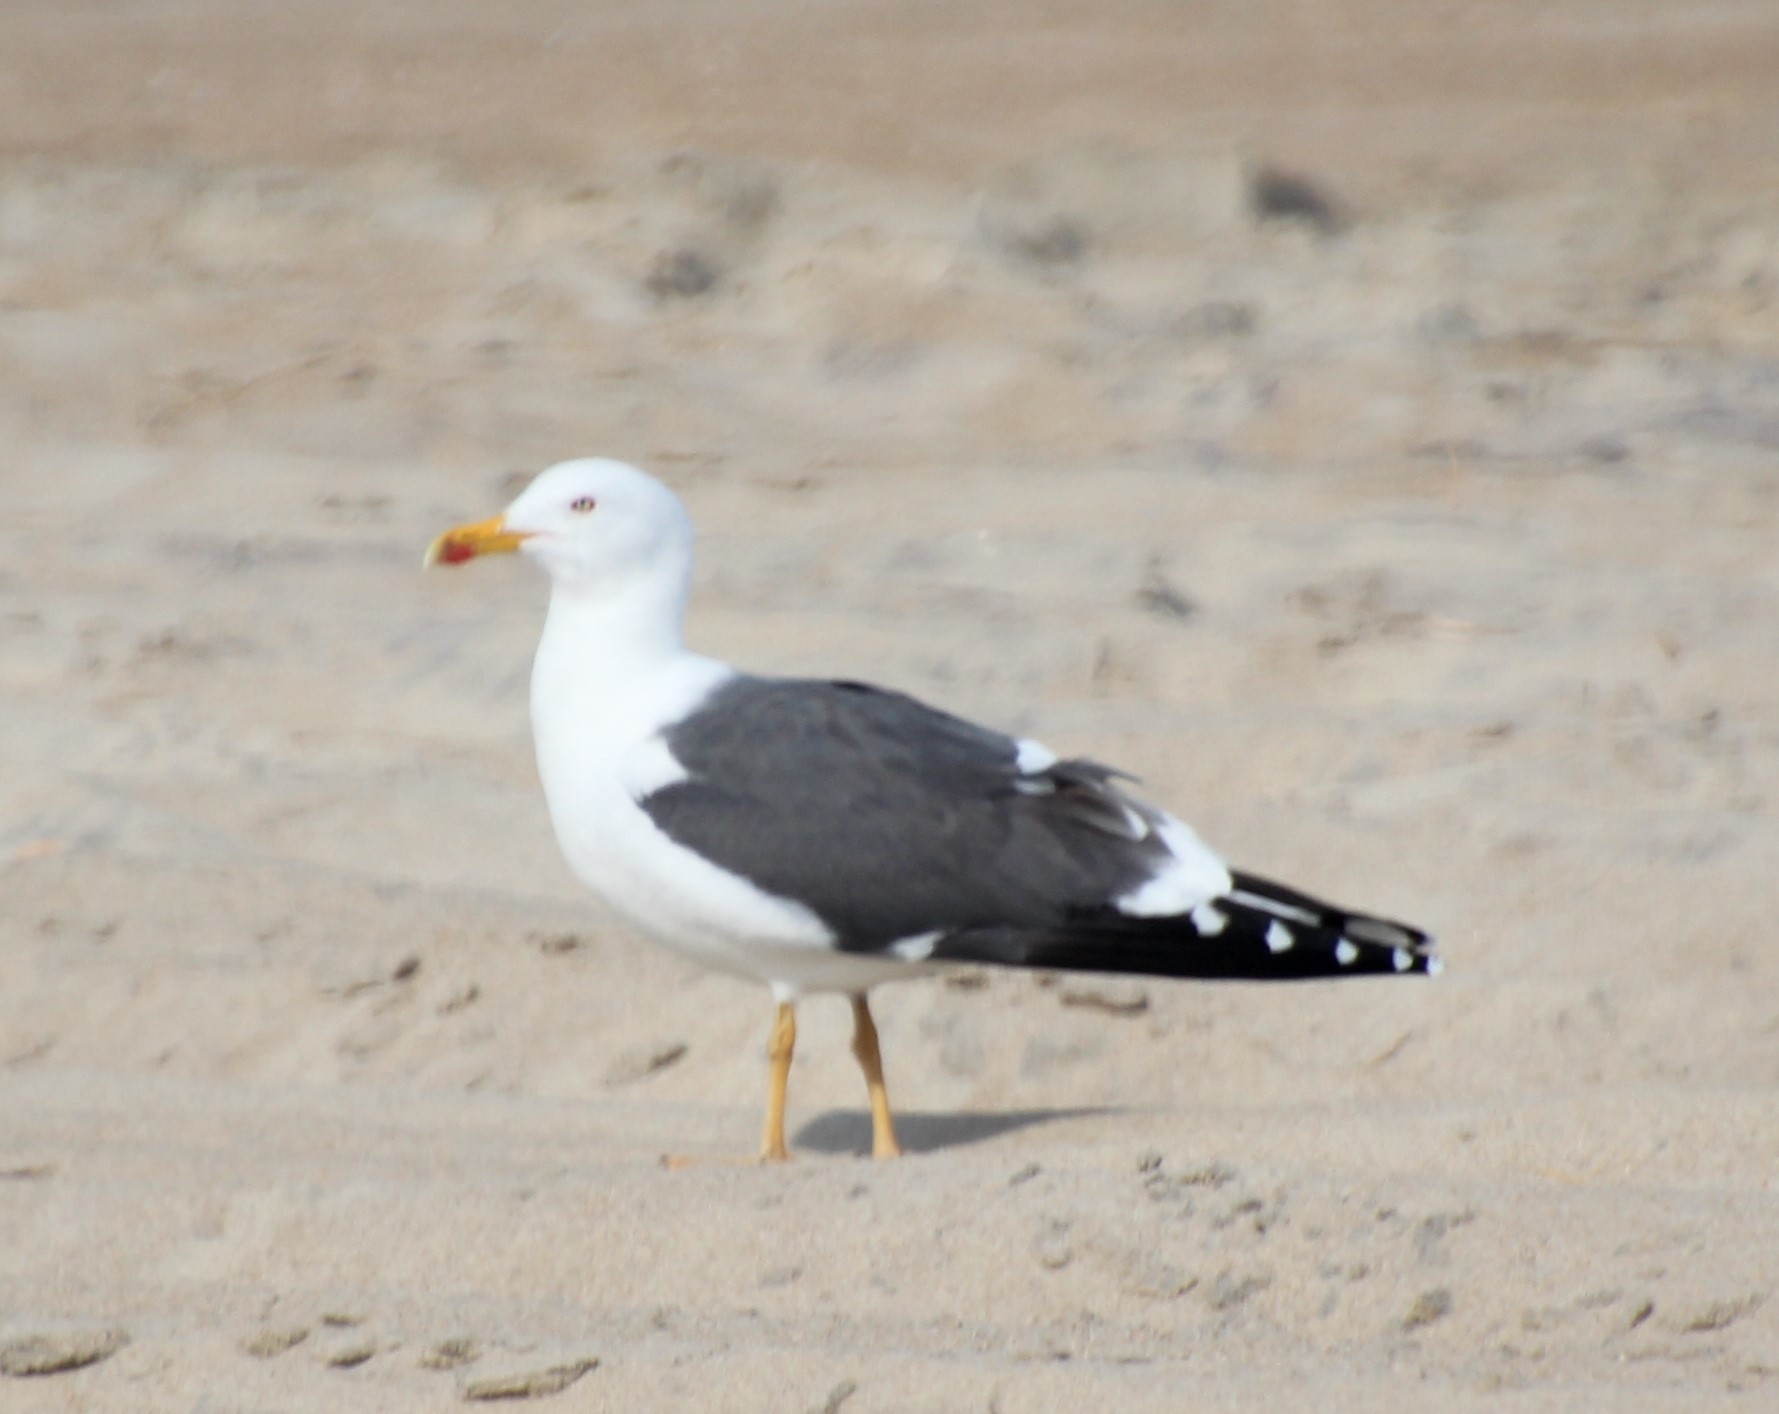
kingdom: Animalia
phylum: Chordata
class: Aves
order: Charadriiformes
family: Laridae
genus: Larus
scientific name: Larus fuscus
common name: Lesser black-backed gull
